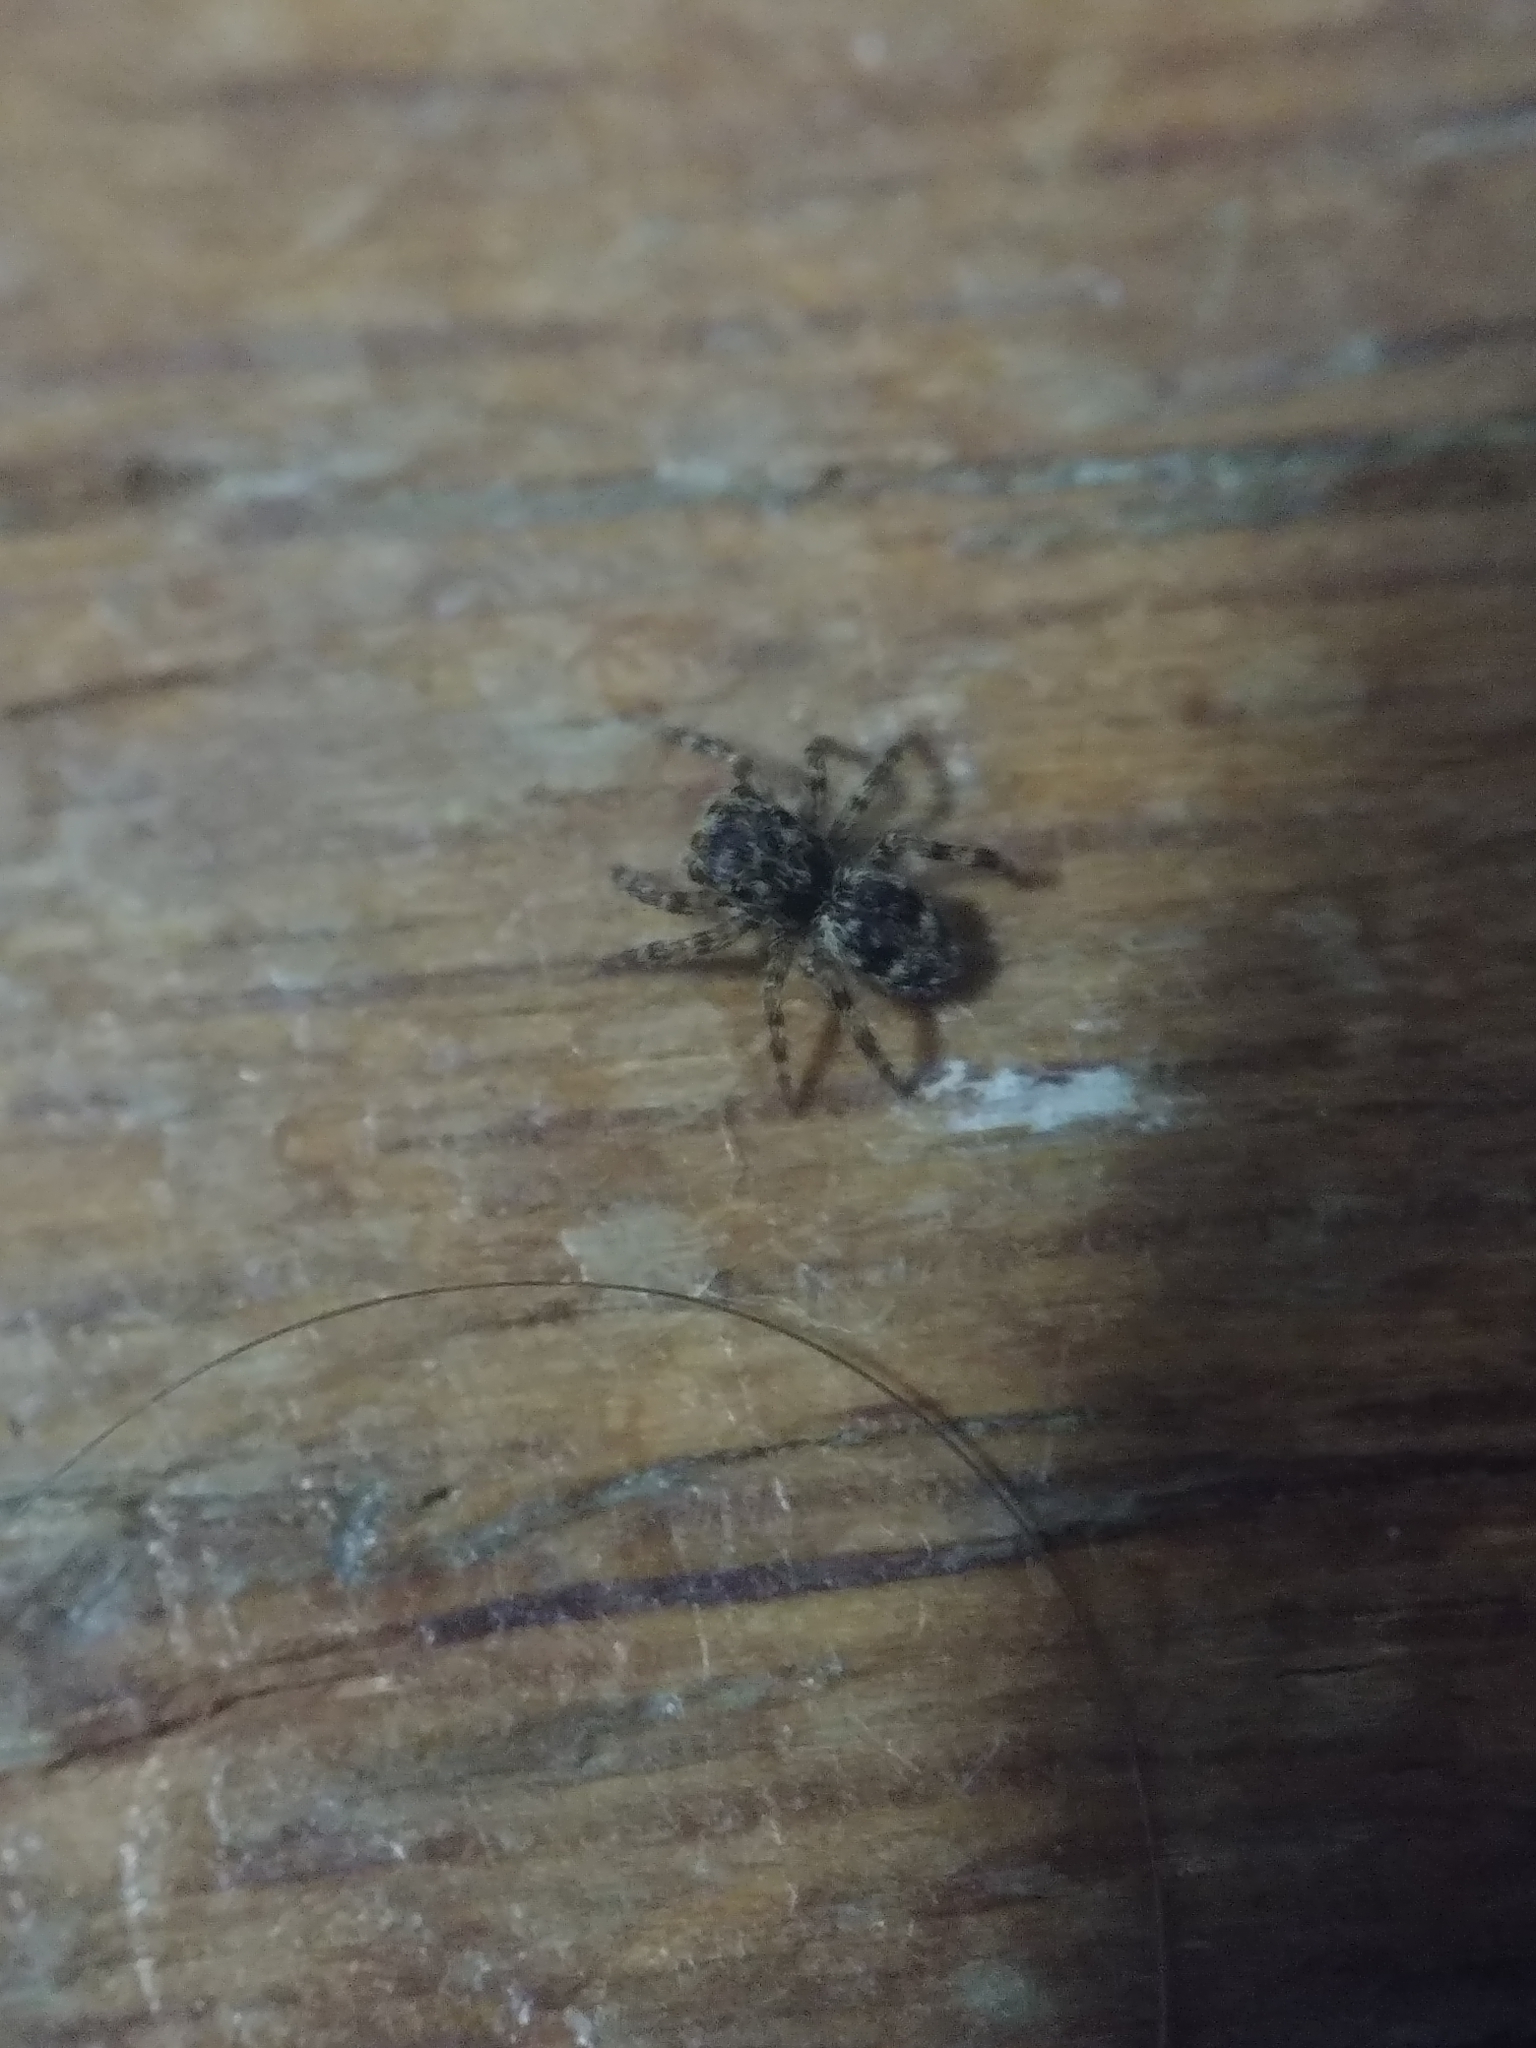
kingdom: Animalia
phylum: Arthropoda
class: Arachnida
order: Araneae
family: Salticidae
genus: Attulus
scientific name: Attulus fasciger
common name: Asiatic wall jumping spider
